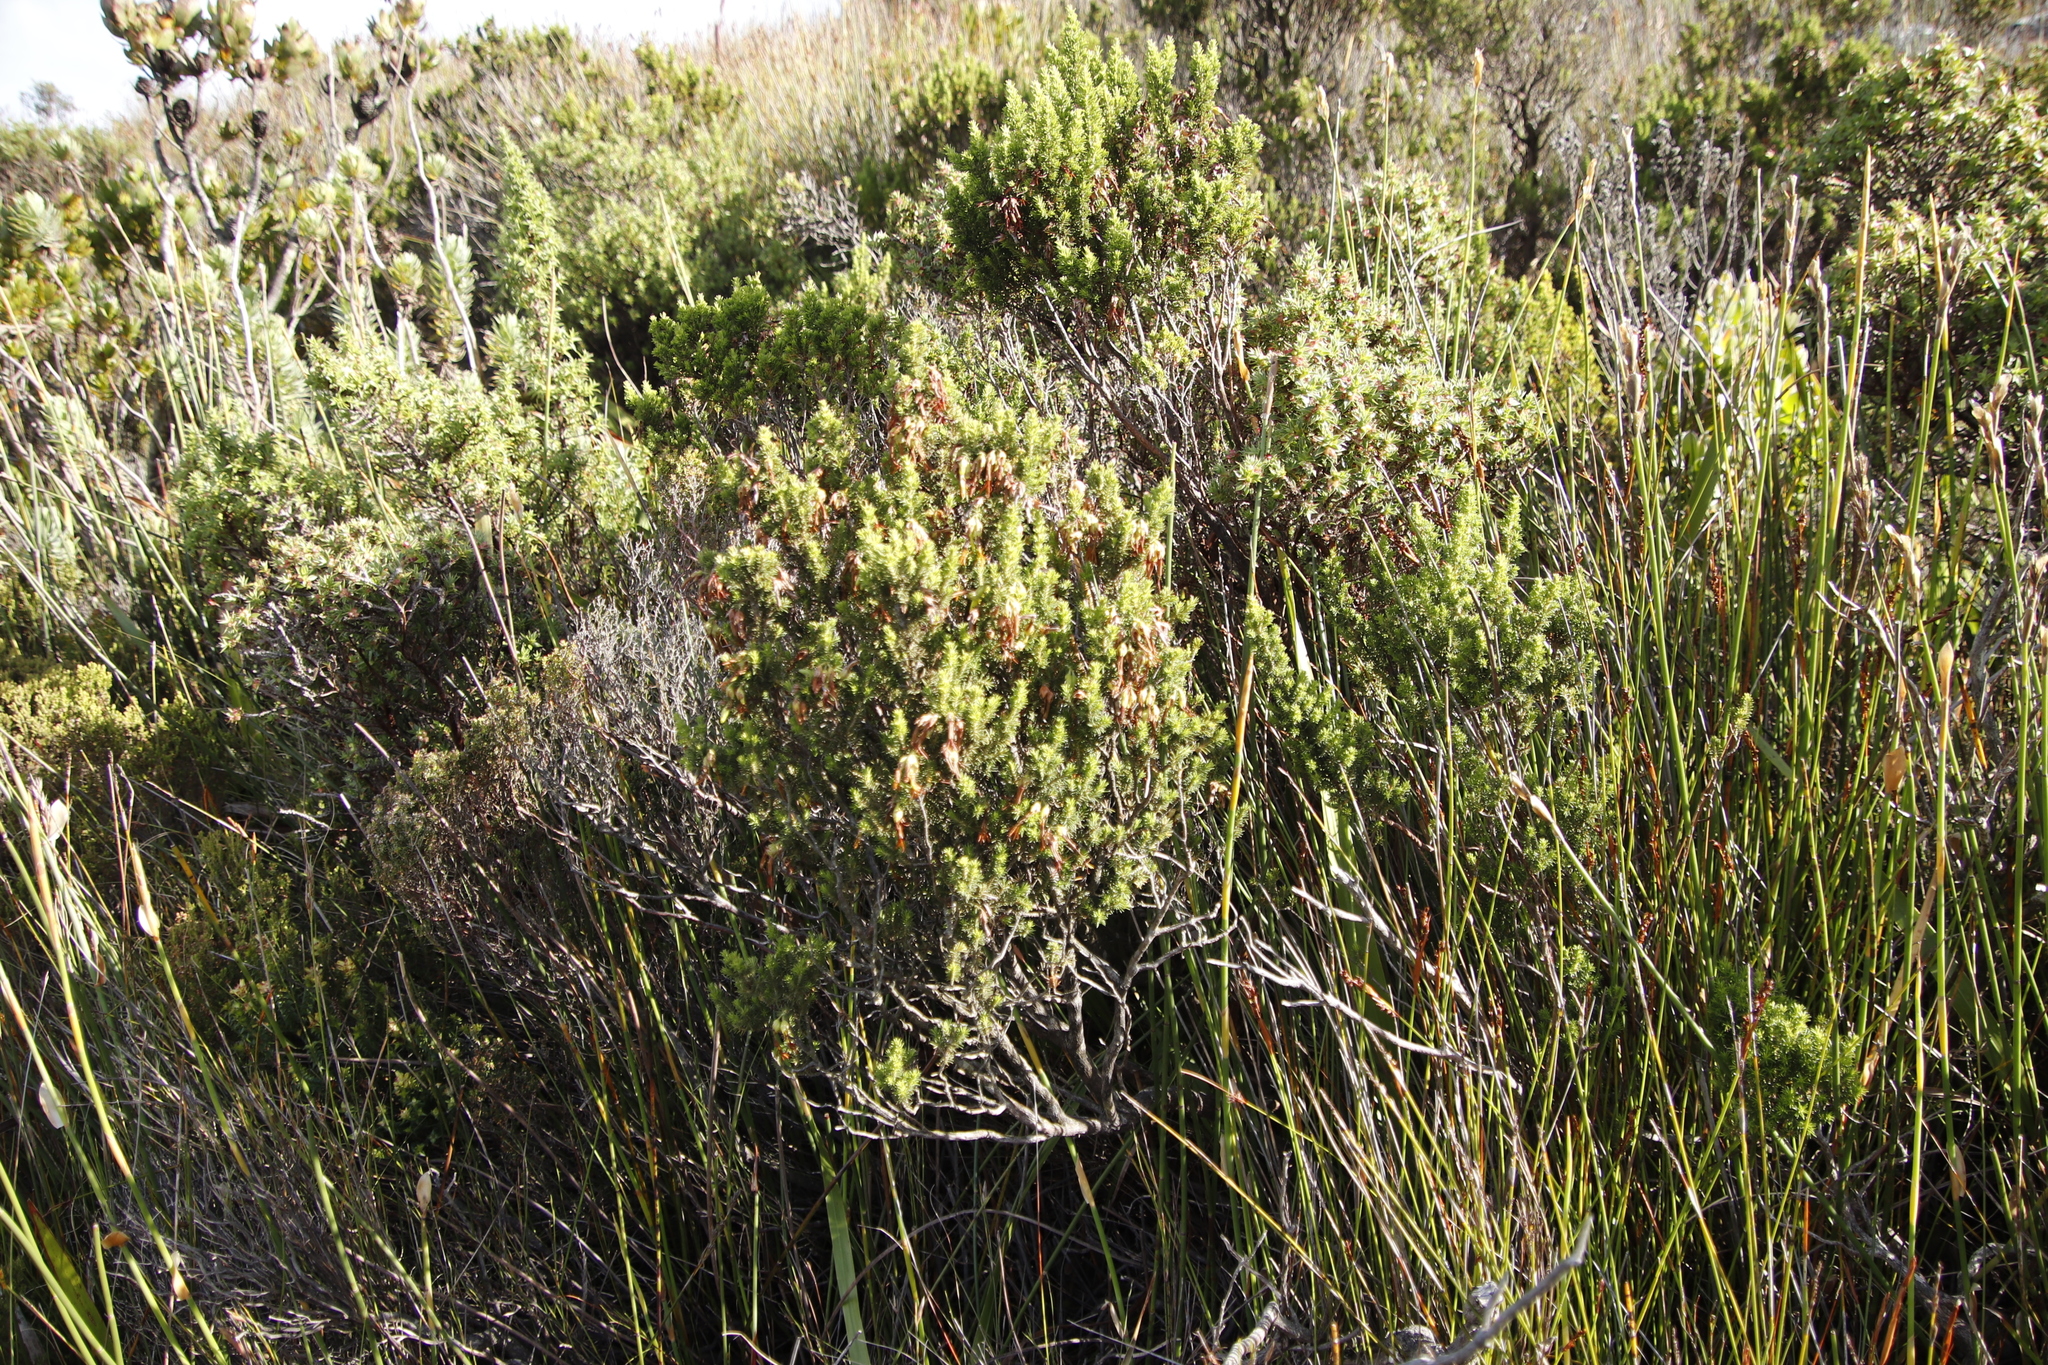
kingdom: Plantae
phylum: Tracheophyta
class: Magnoliopsida
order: Ericales
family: Ericaceae
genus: Erica
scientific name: Erica coccinea
